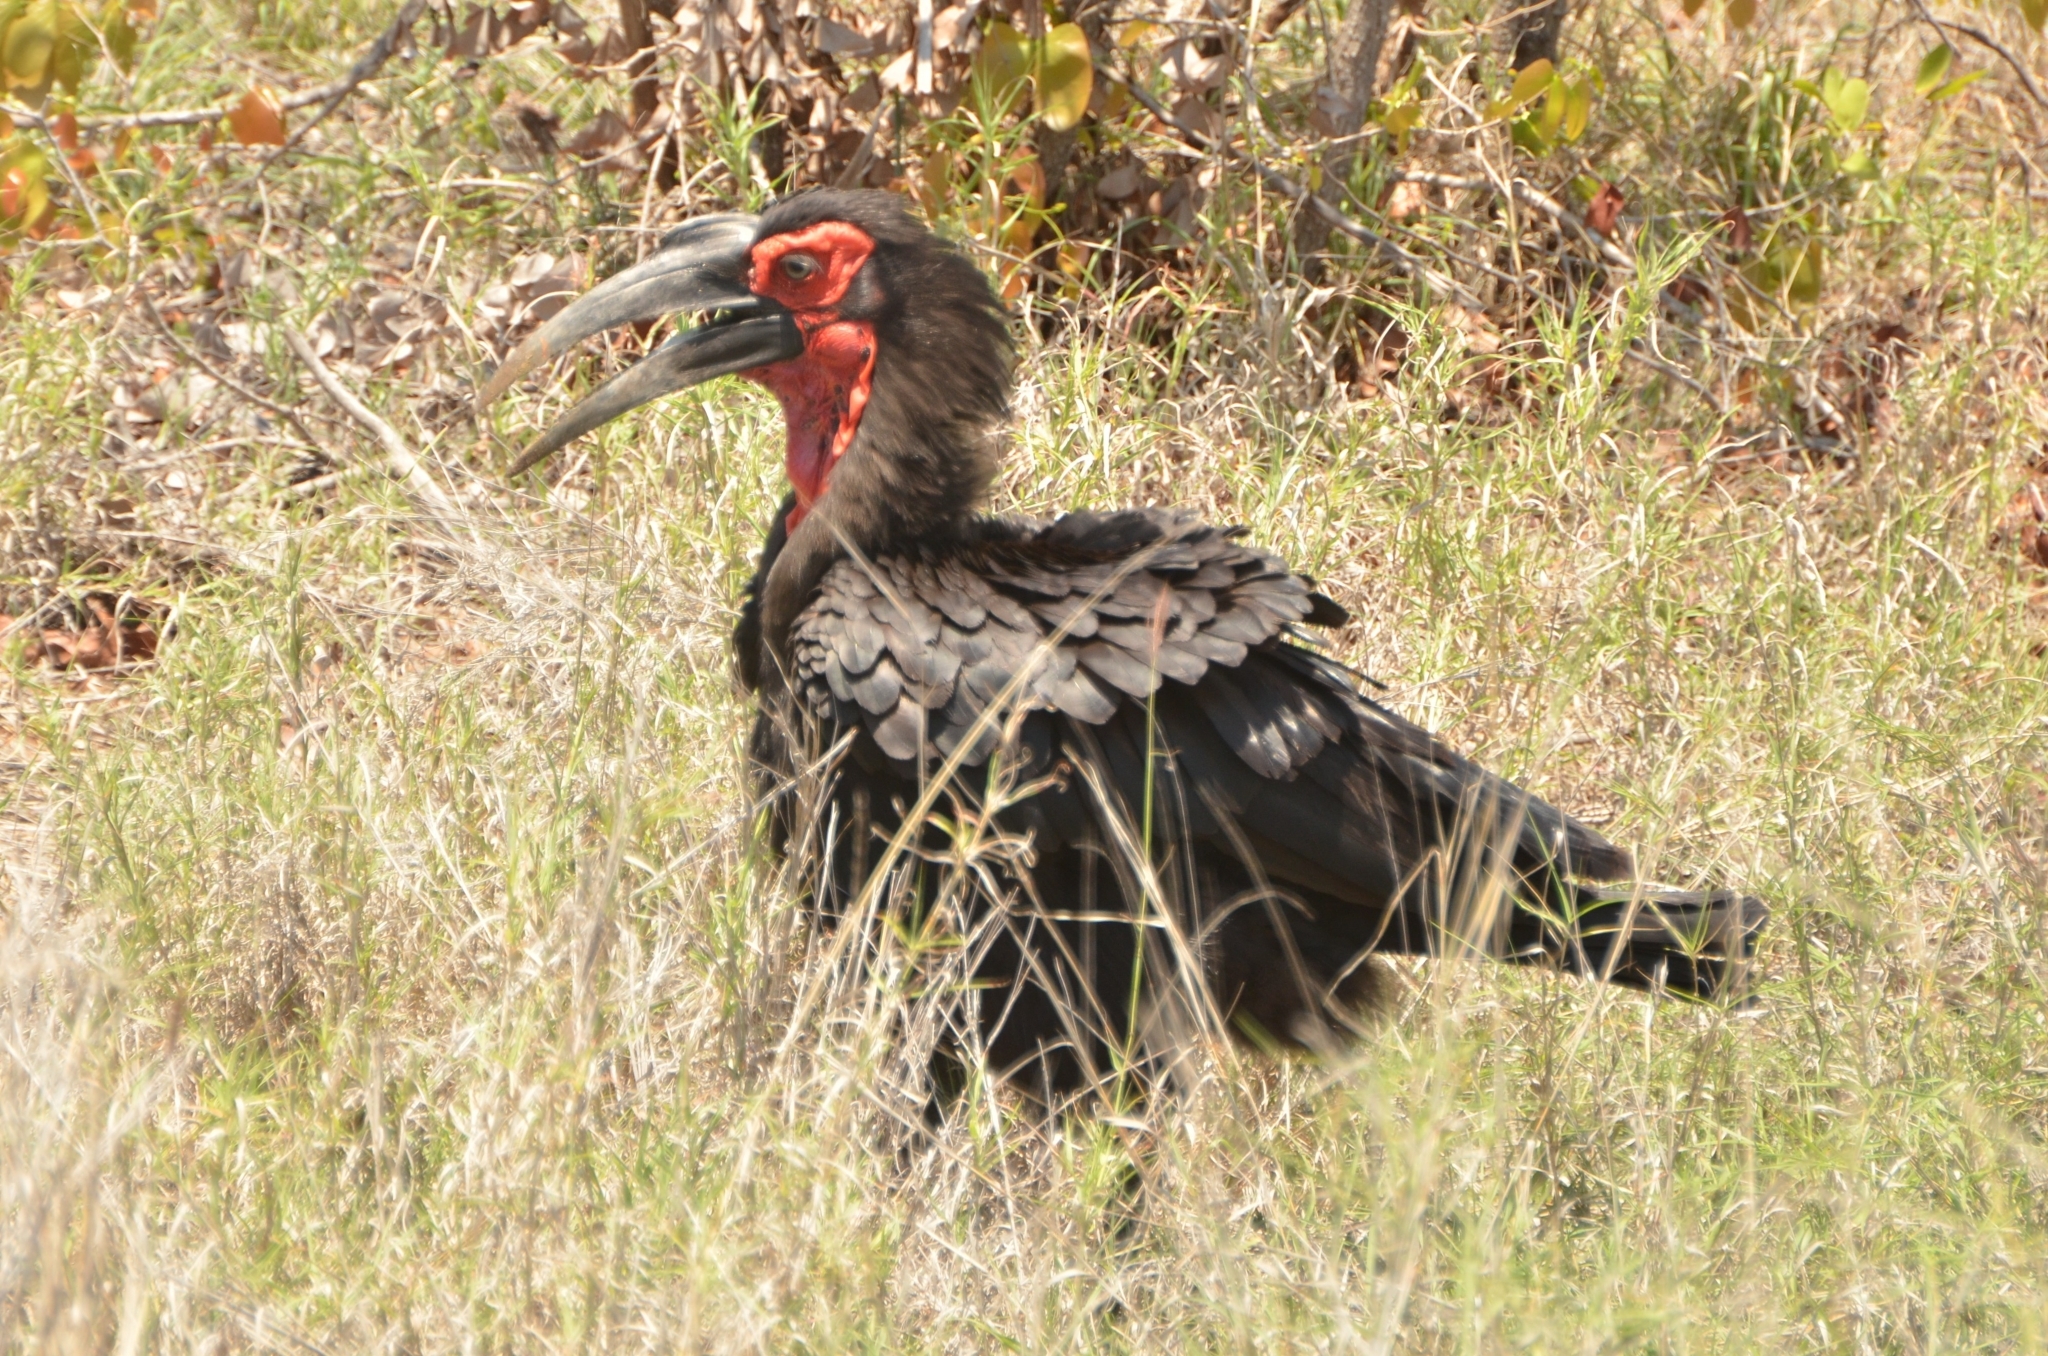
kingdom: Animalia
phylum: Chordata
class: Aves
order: Bucerotiformes
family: Bucorvidae
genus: Bucorvus
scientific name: Bucorvus leadbeateri
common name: Southern ground-hornbill
